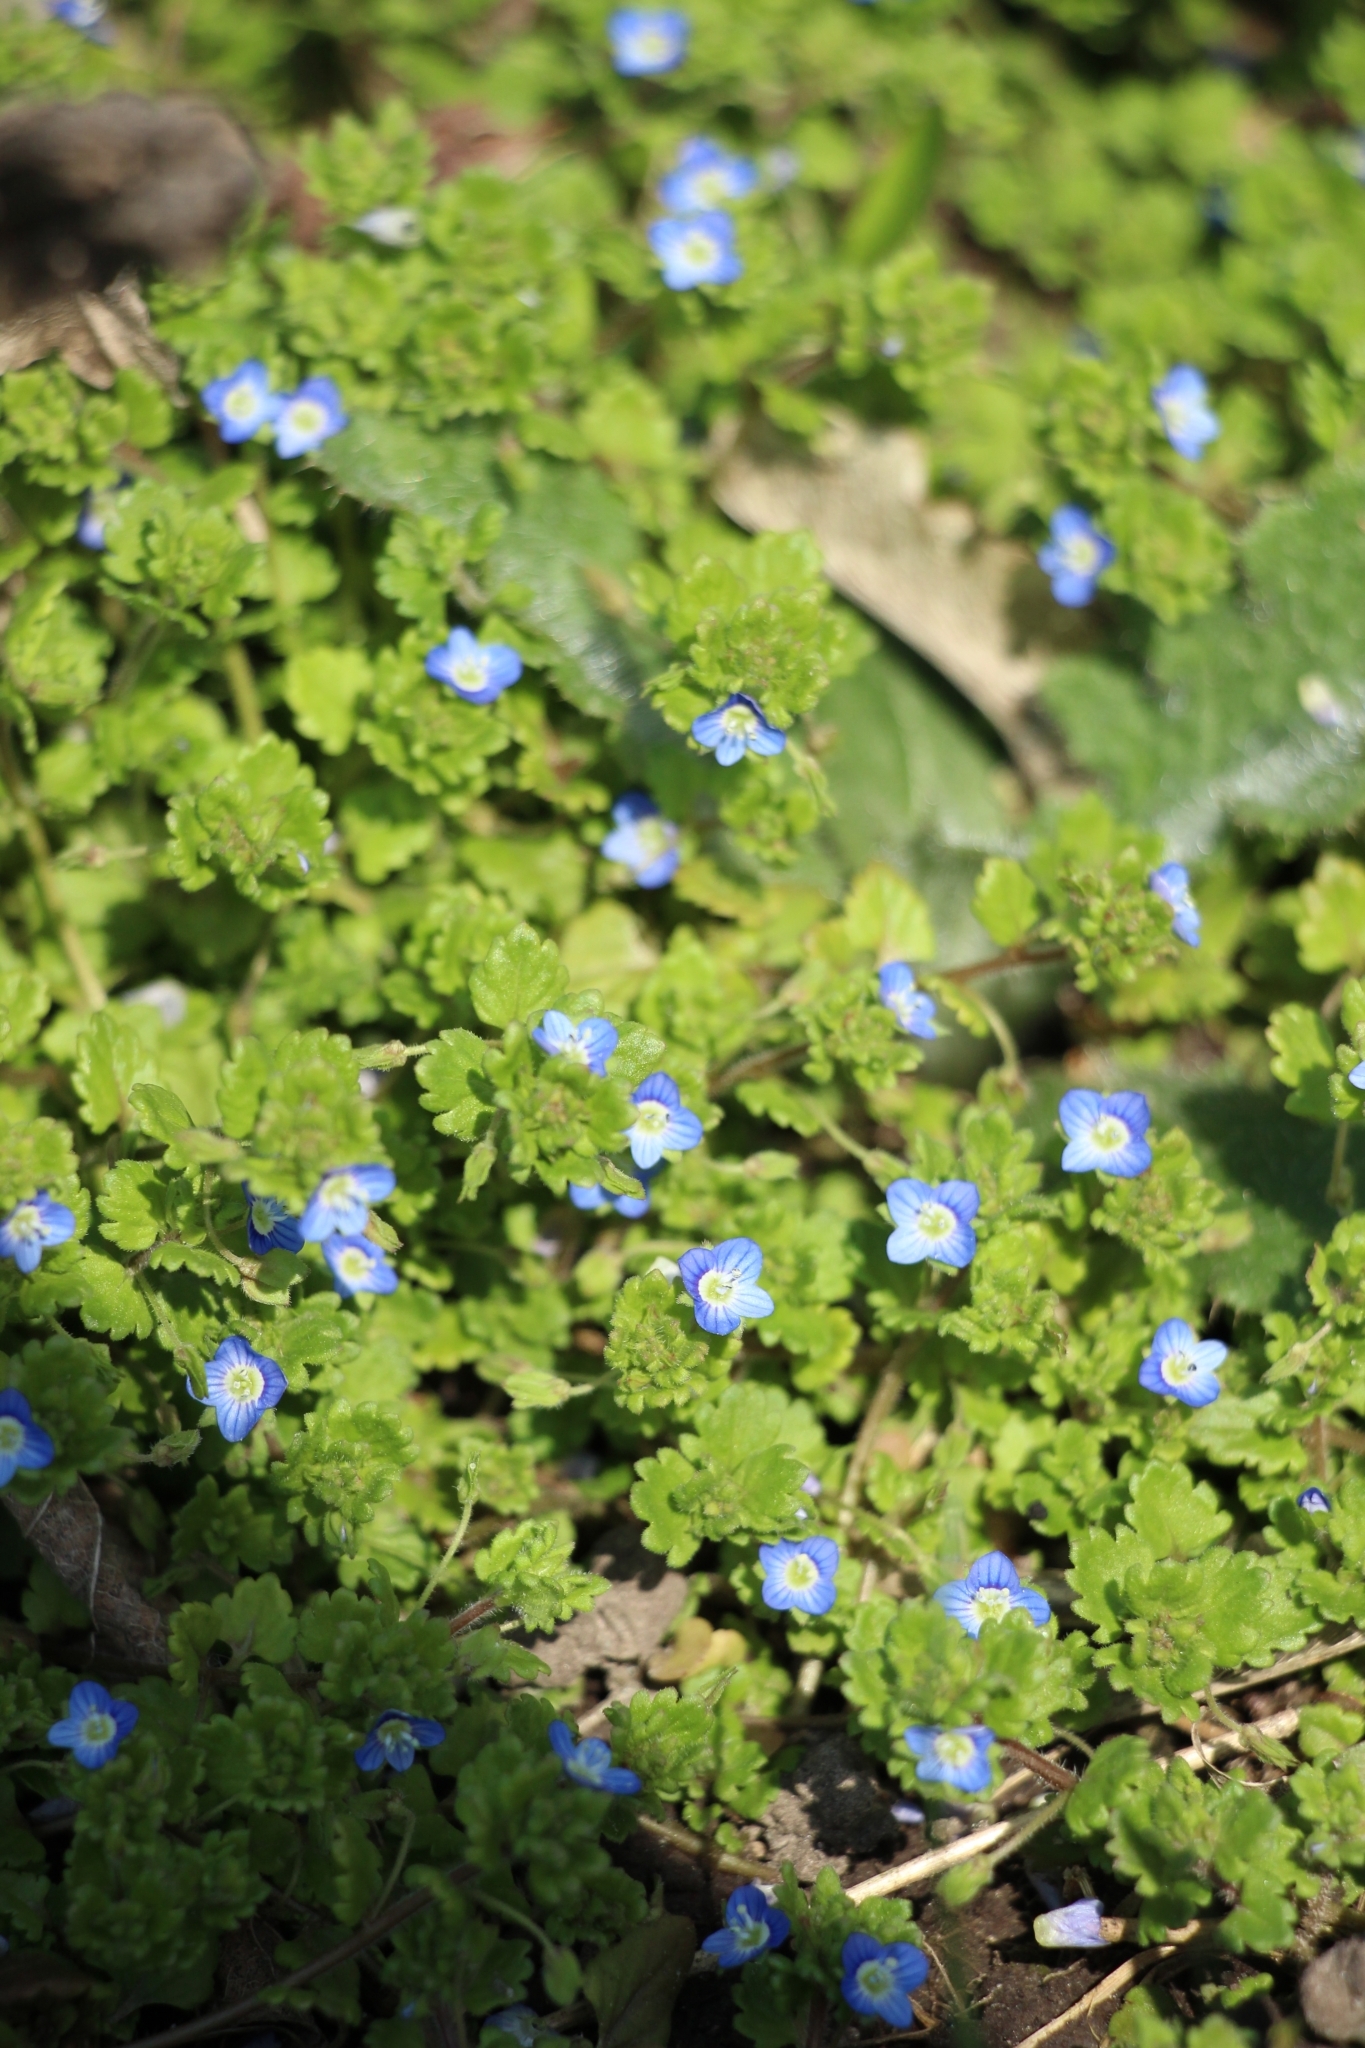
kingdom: Plantae
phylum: Tracheophyta
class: Magnoliopsida
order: Lamiales
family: Plantaginaceae
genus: Veronica
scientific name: Veronica polita
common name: Grey field-speedwell
